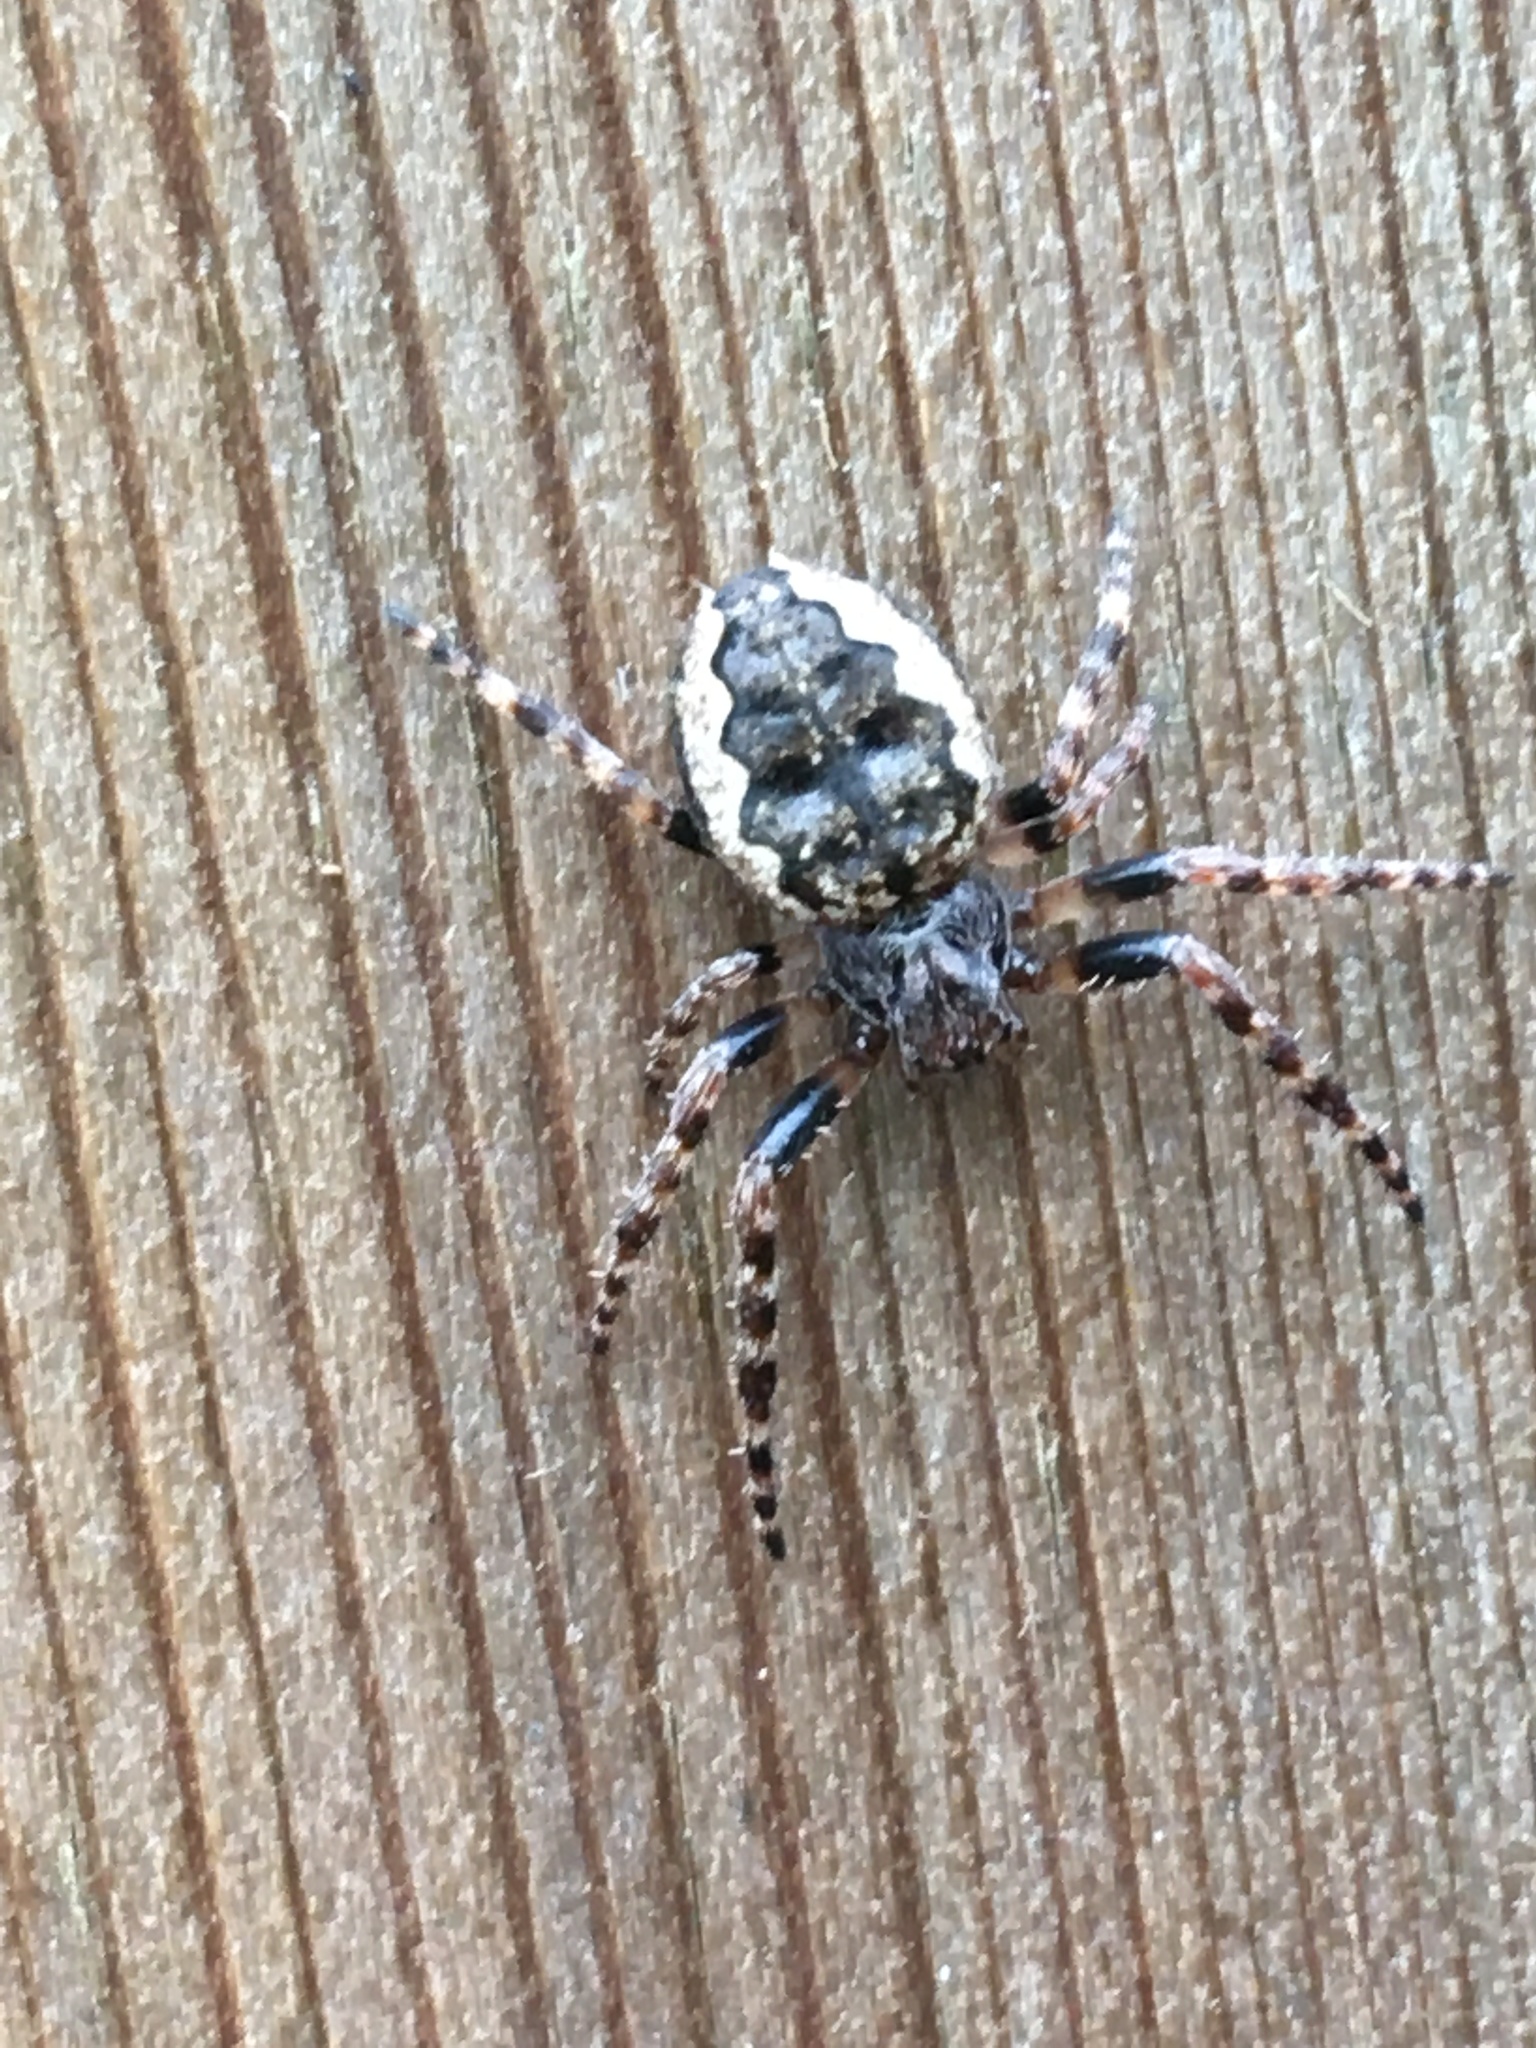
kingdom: Animalia
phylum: Arthropoda
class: Arachnida
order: Araneae
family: Araneidae
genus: Nuctenea
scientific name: Nuctenea umbratica
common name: Toad spider
